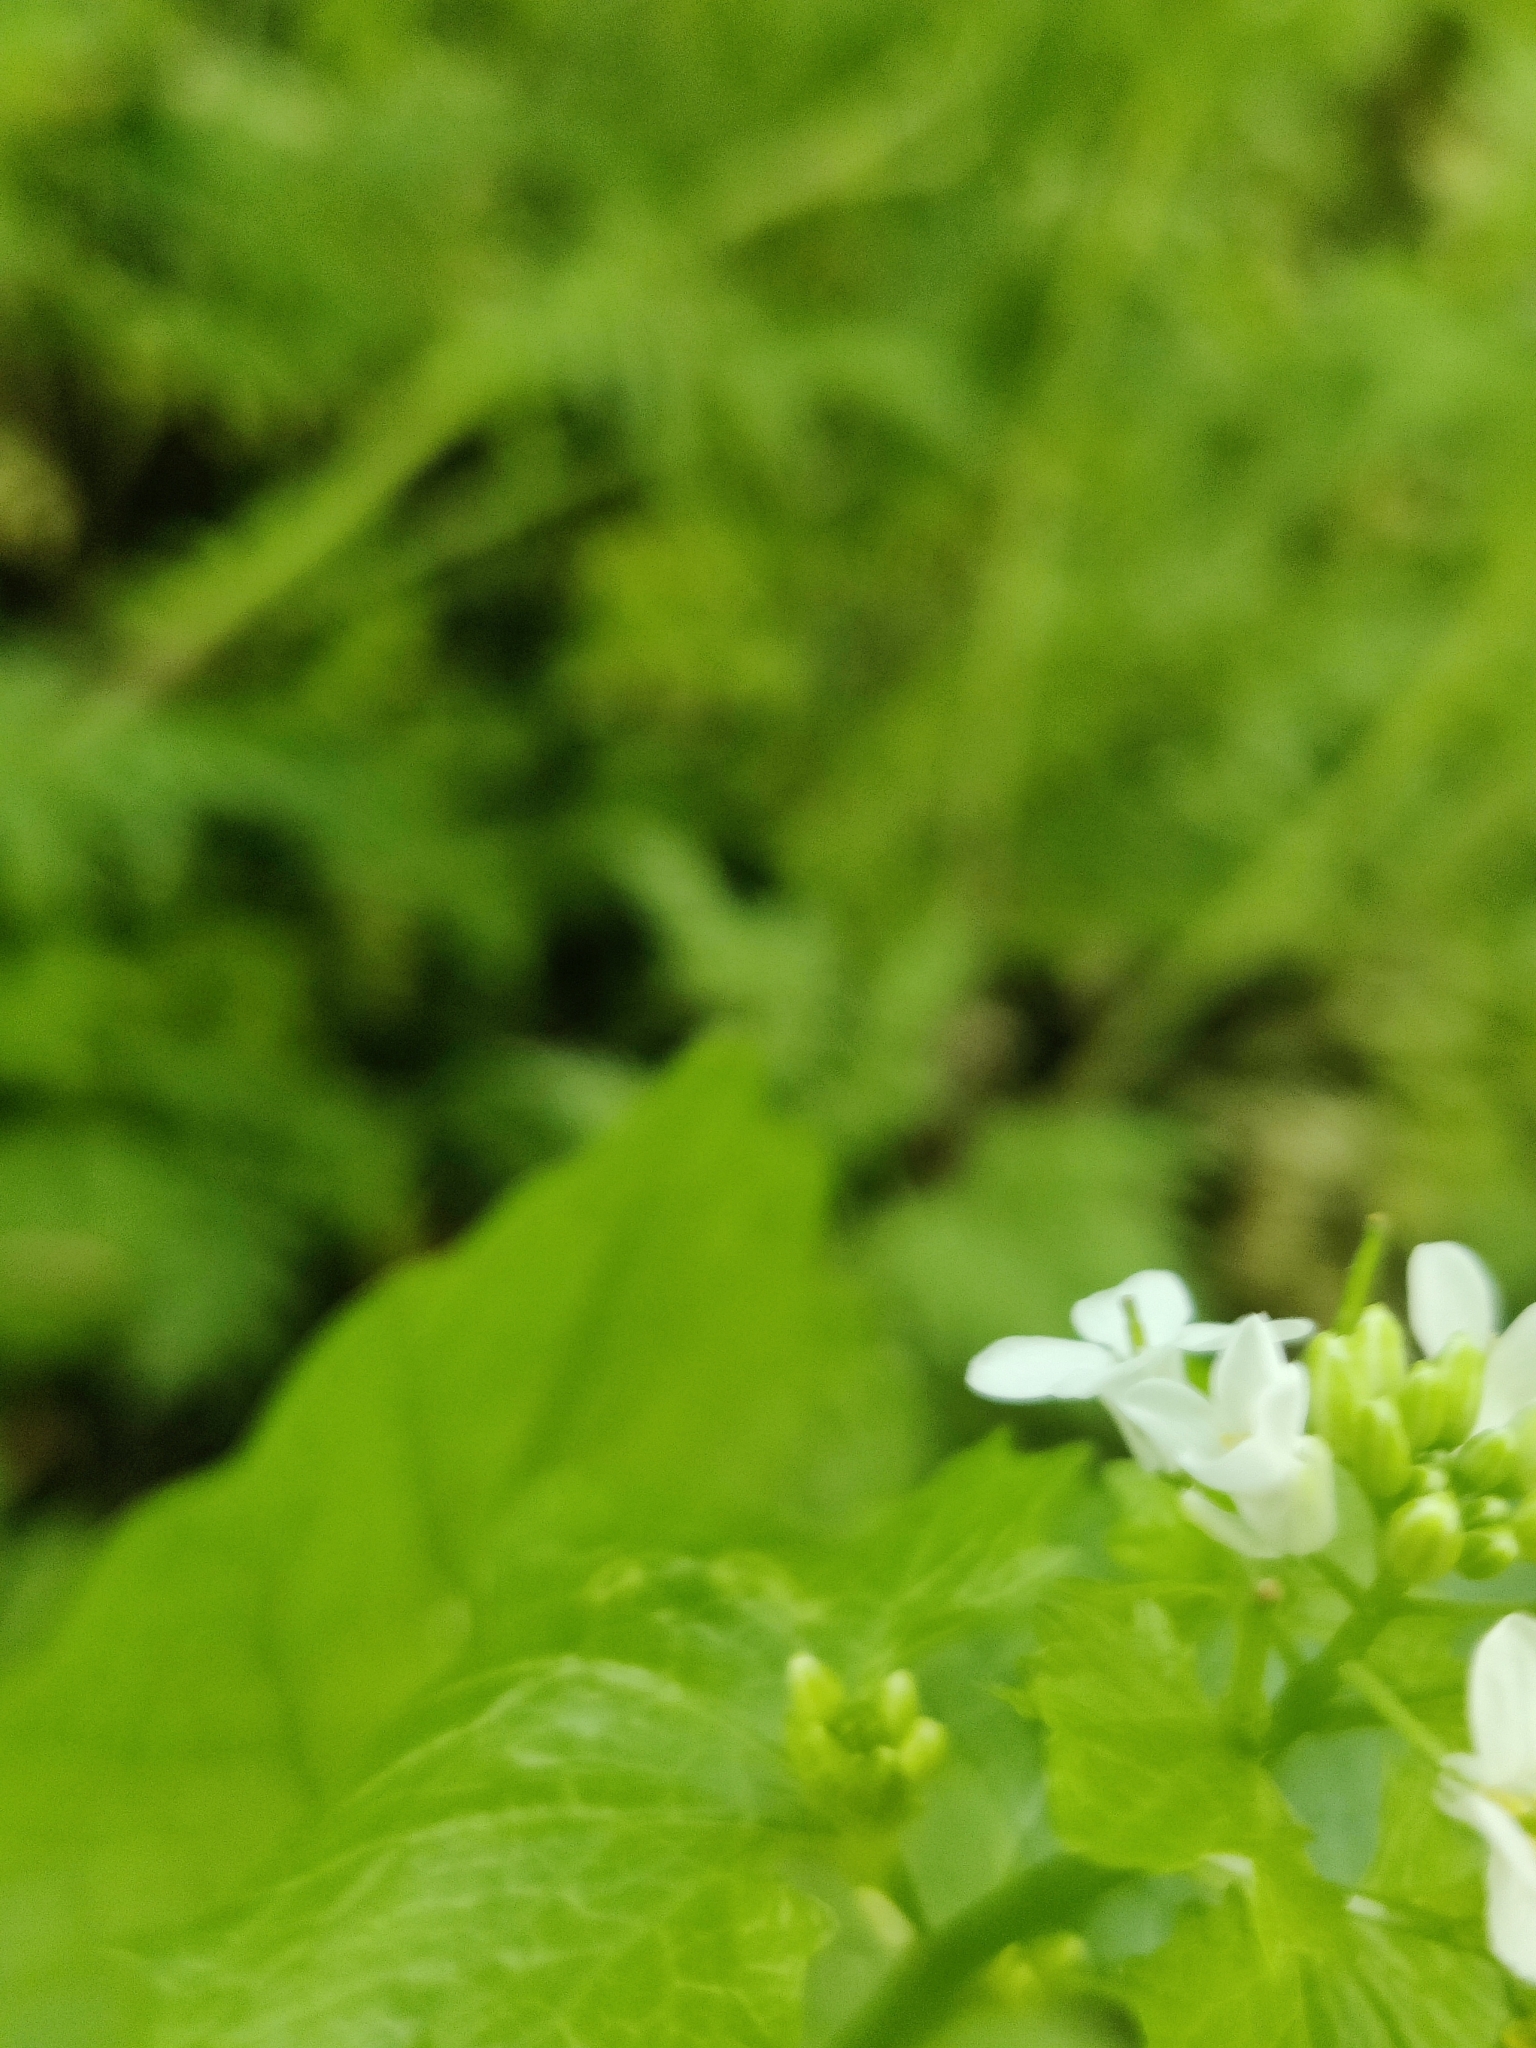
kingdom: Plantae
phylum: Tracheophyta
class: Magnoliopsida
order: Brassicales
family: Brassicaceae
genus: Alliaria
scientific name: Alliaria petiolata
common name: Garlic mustard
